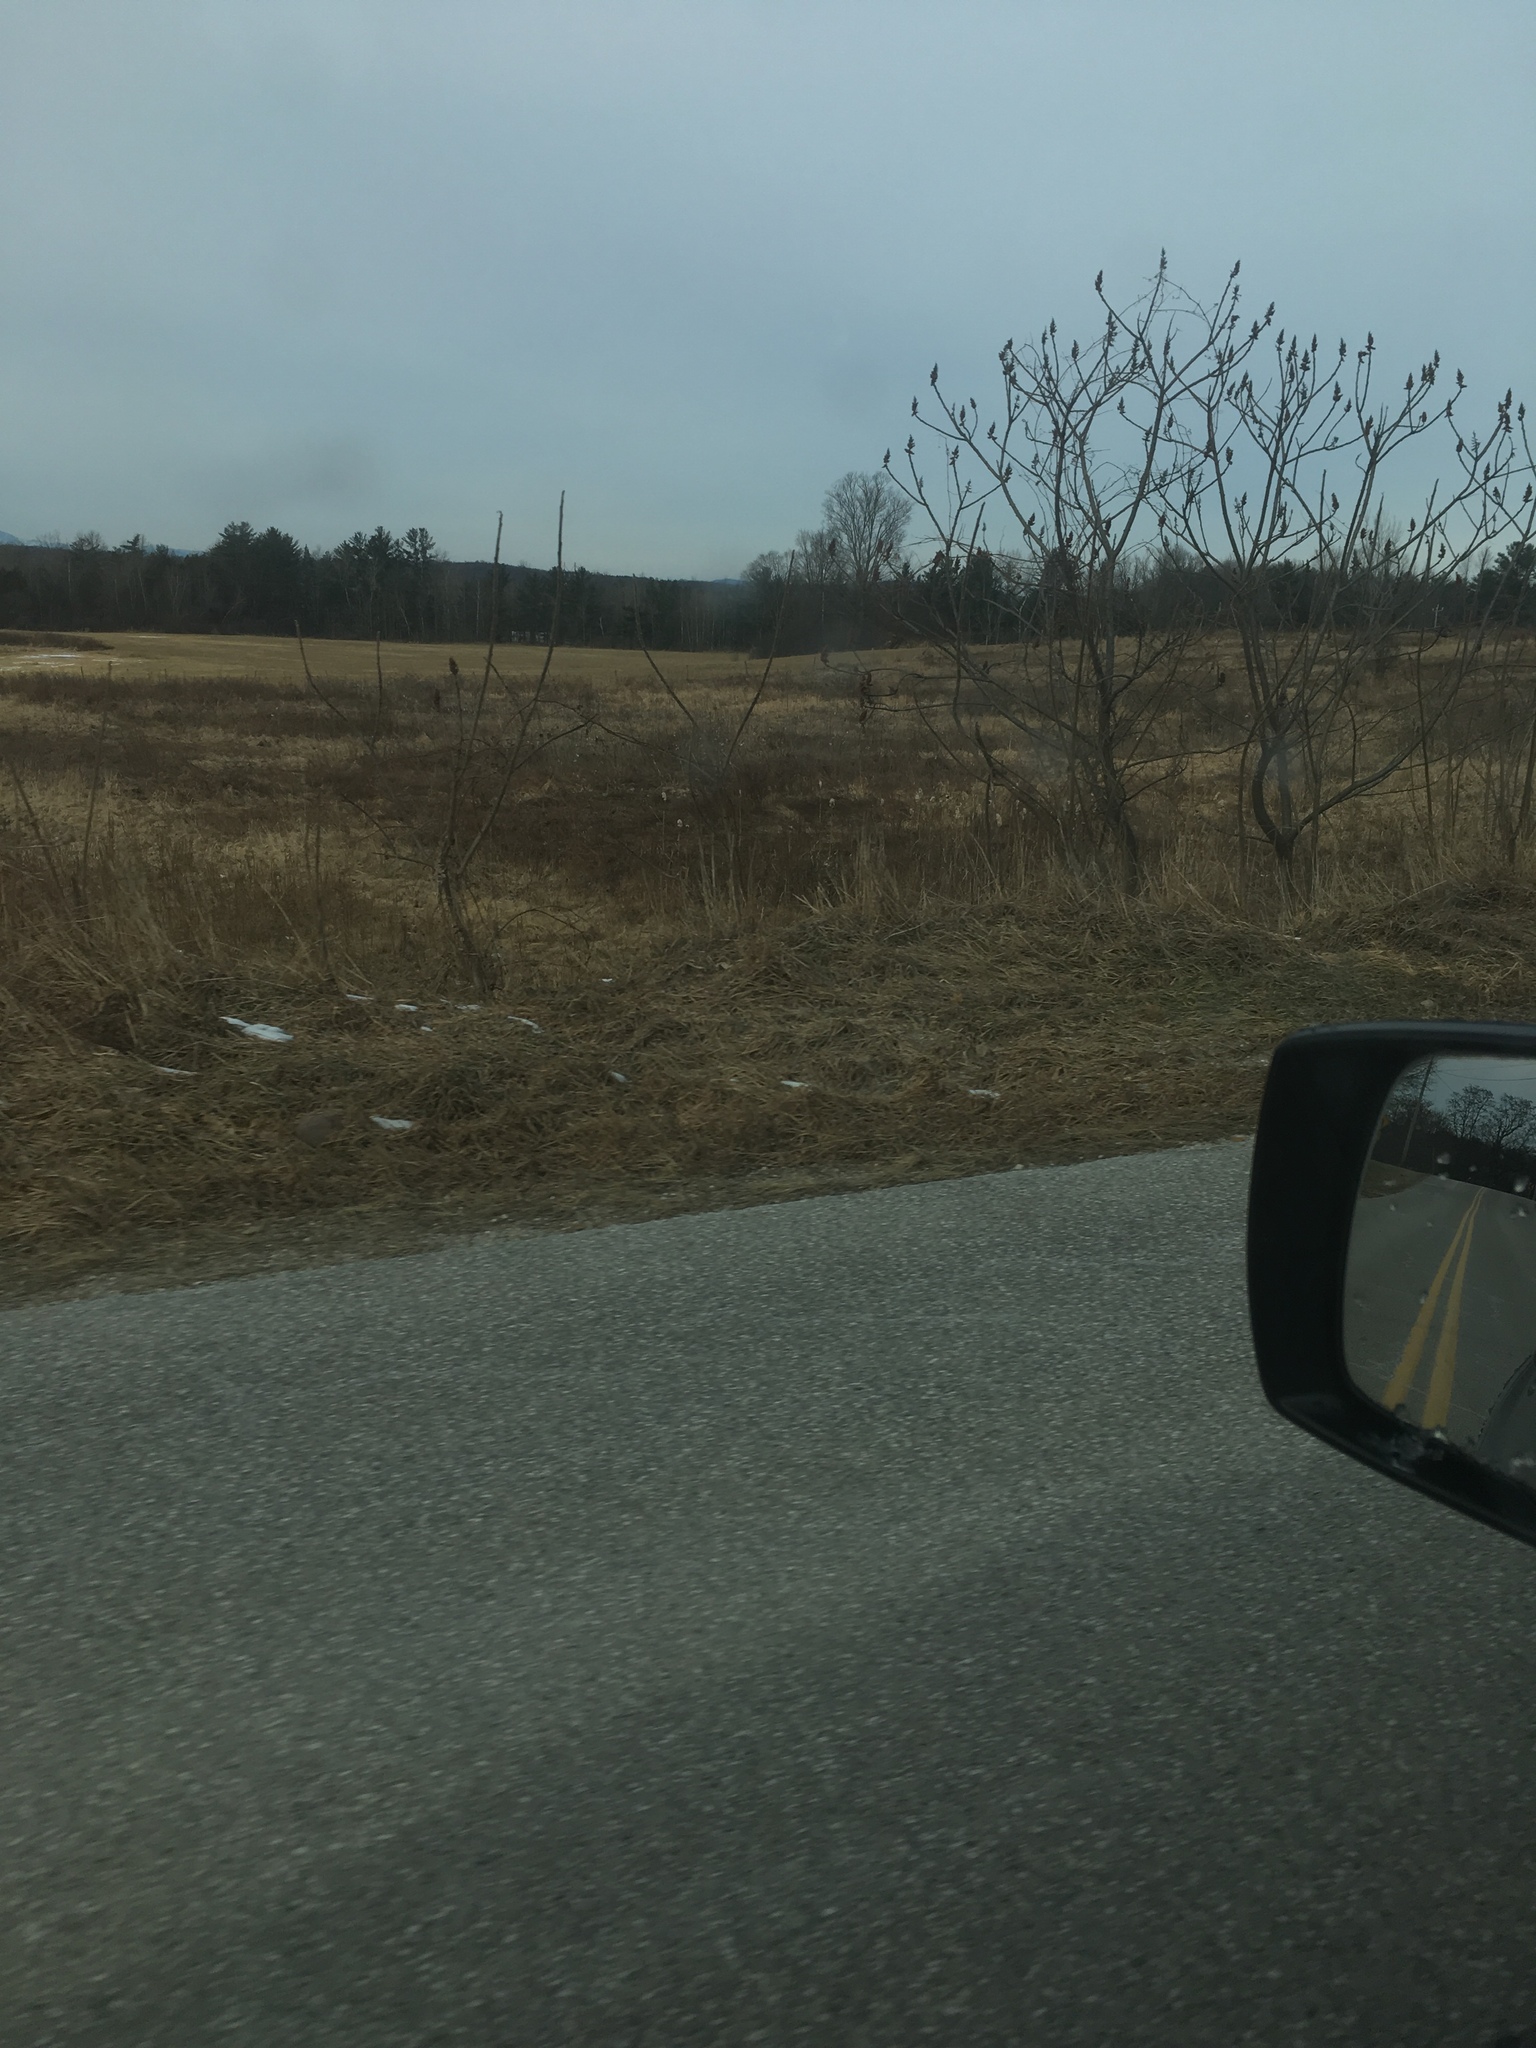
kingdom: Plantae
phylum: Tracheophyta
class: Magnoliopsida
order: Sapindales
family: Anacardiaceae
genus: Rhus
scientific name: Rhus typhina
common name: Staghorn sumac
